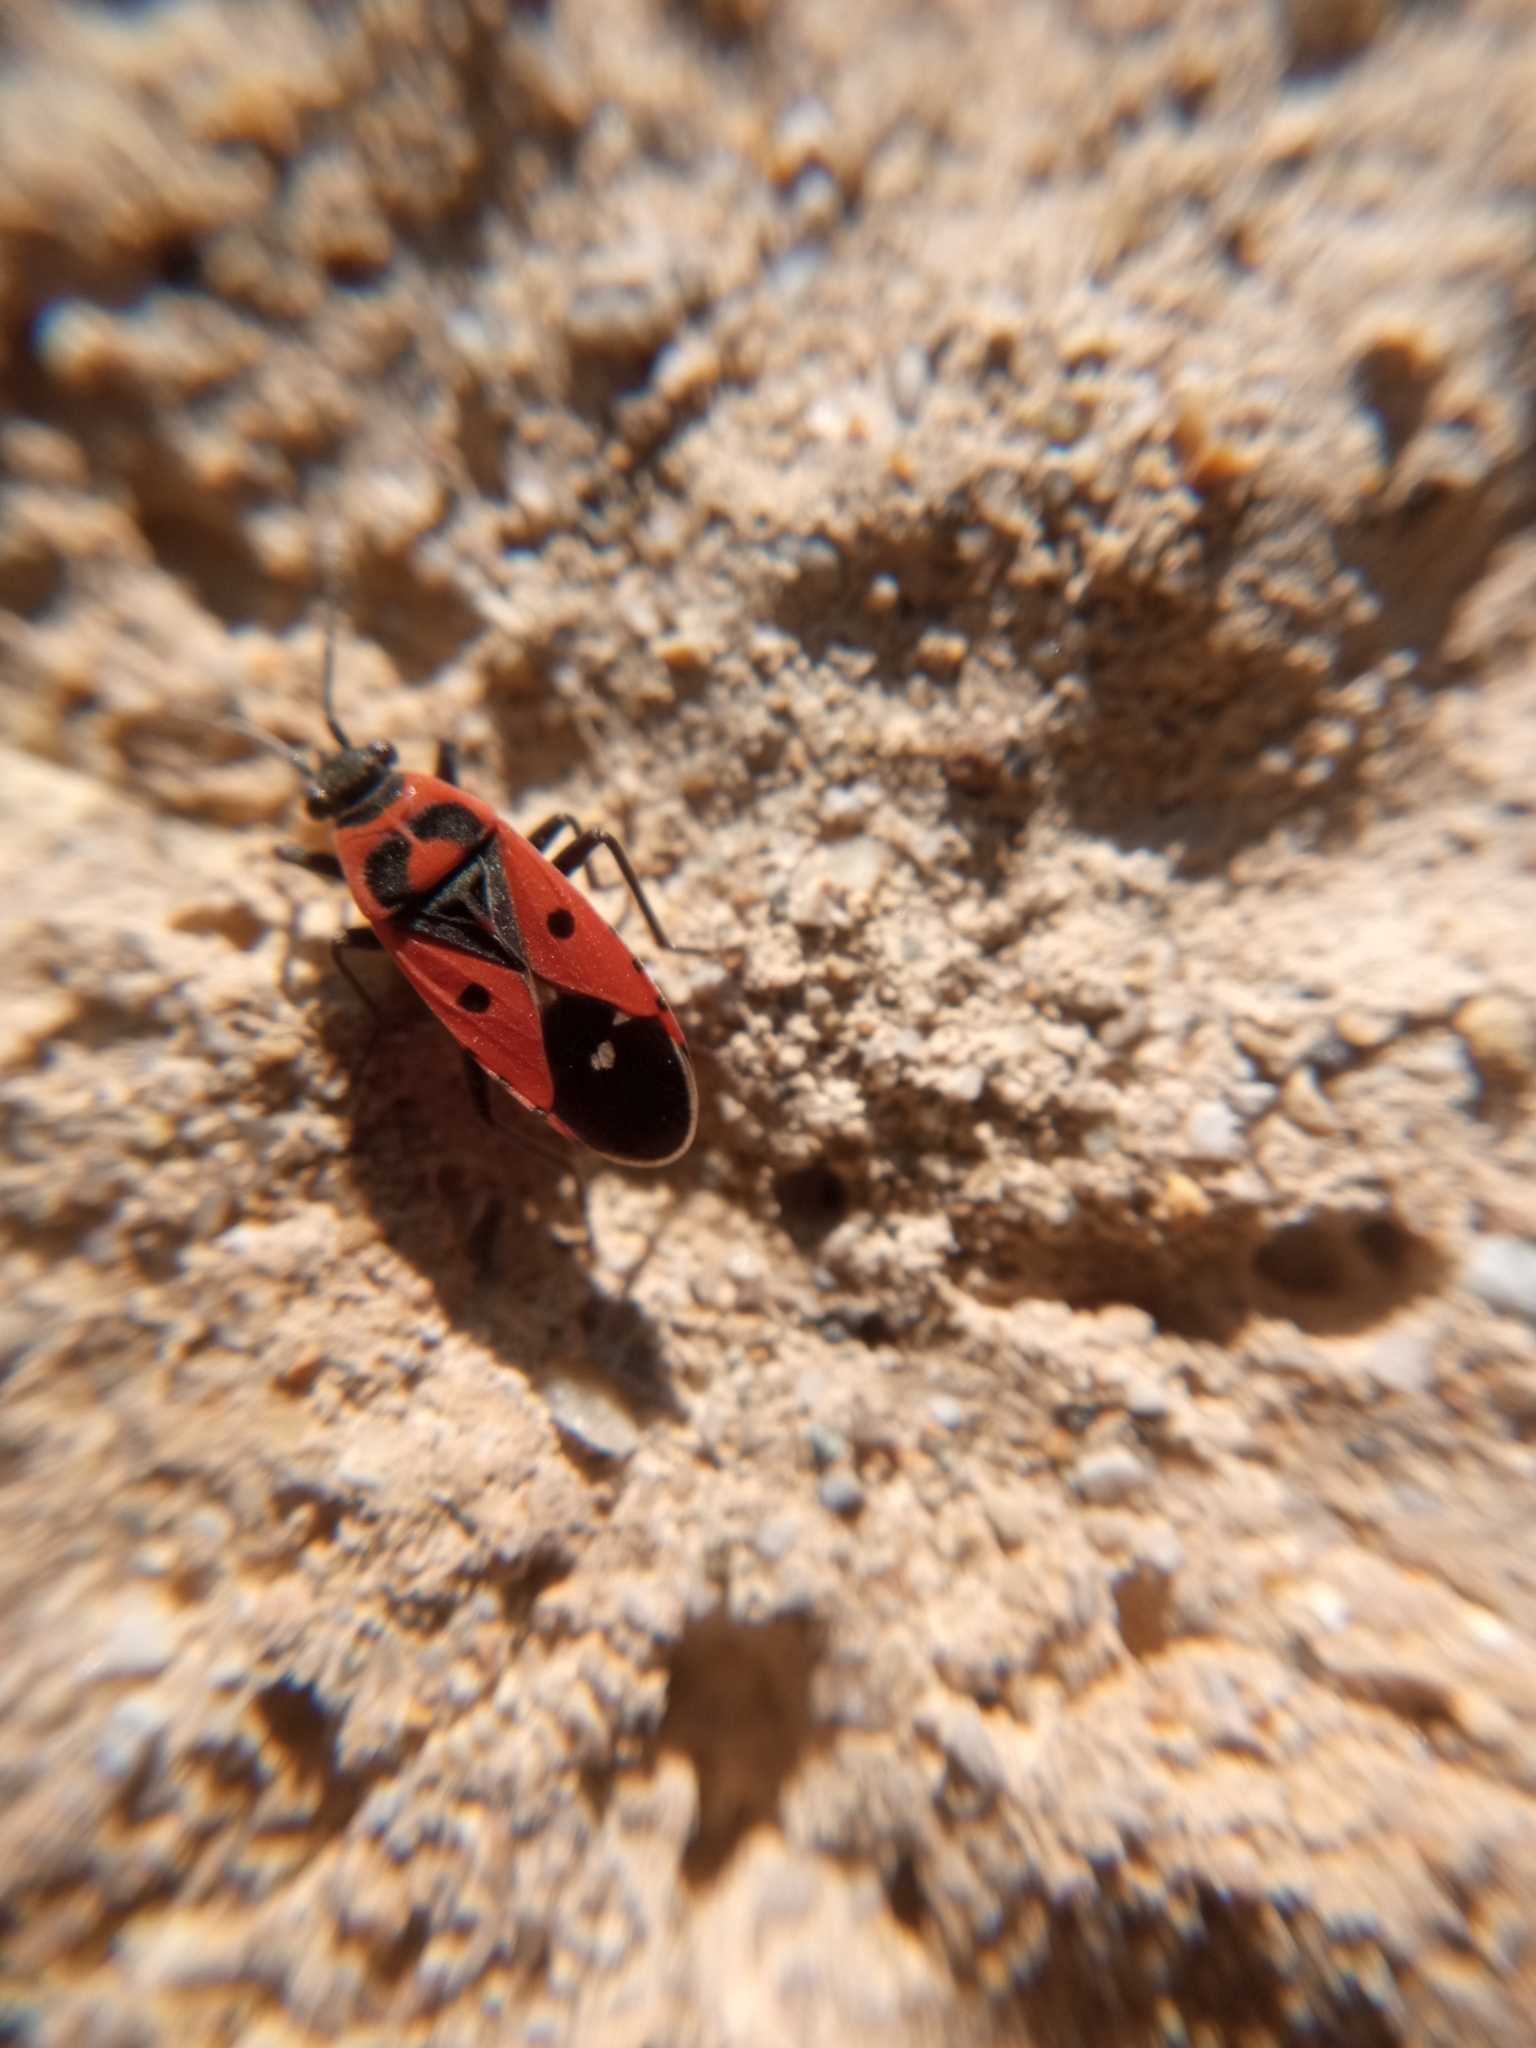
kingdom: Animalia
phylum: Arthropoda
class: Insecta
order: Hemiptera
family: Lygaeidae
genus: Melanocoryphus
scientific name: Melanocoryphus albomaculatus
